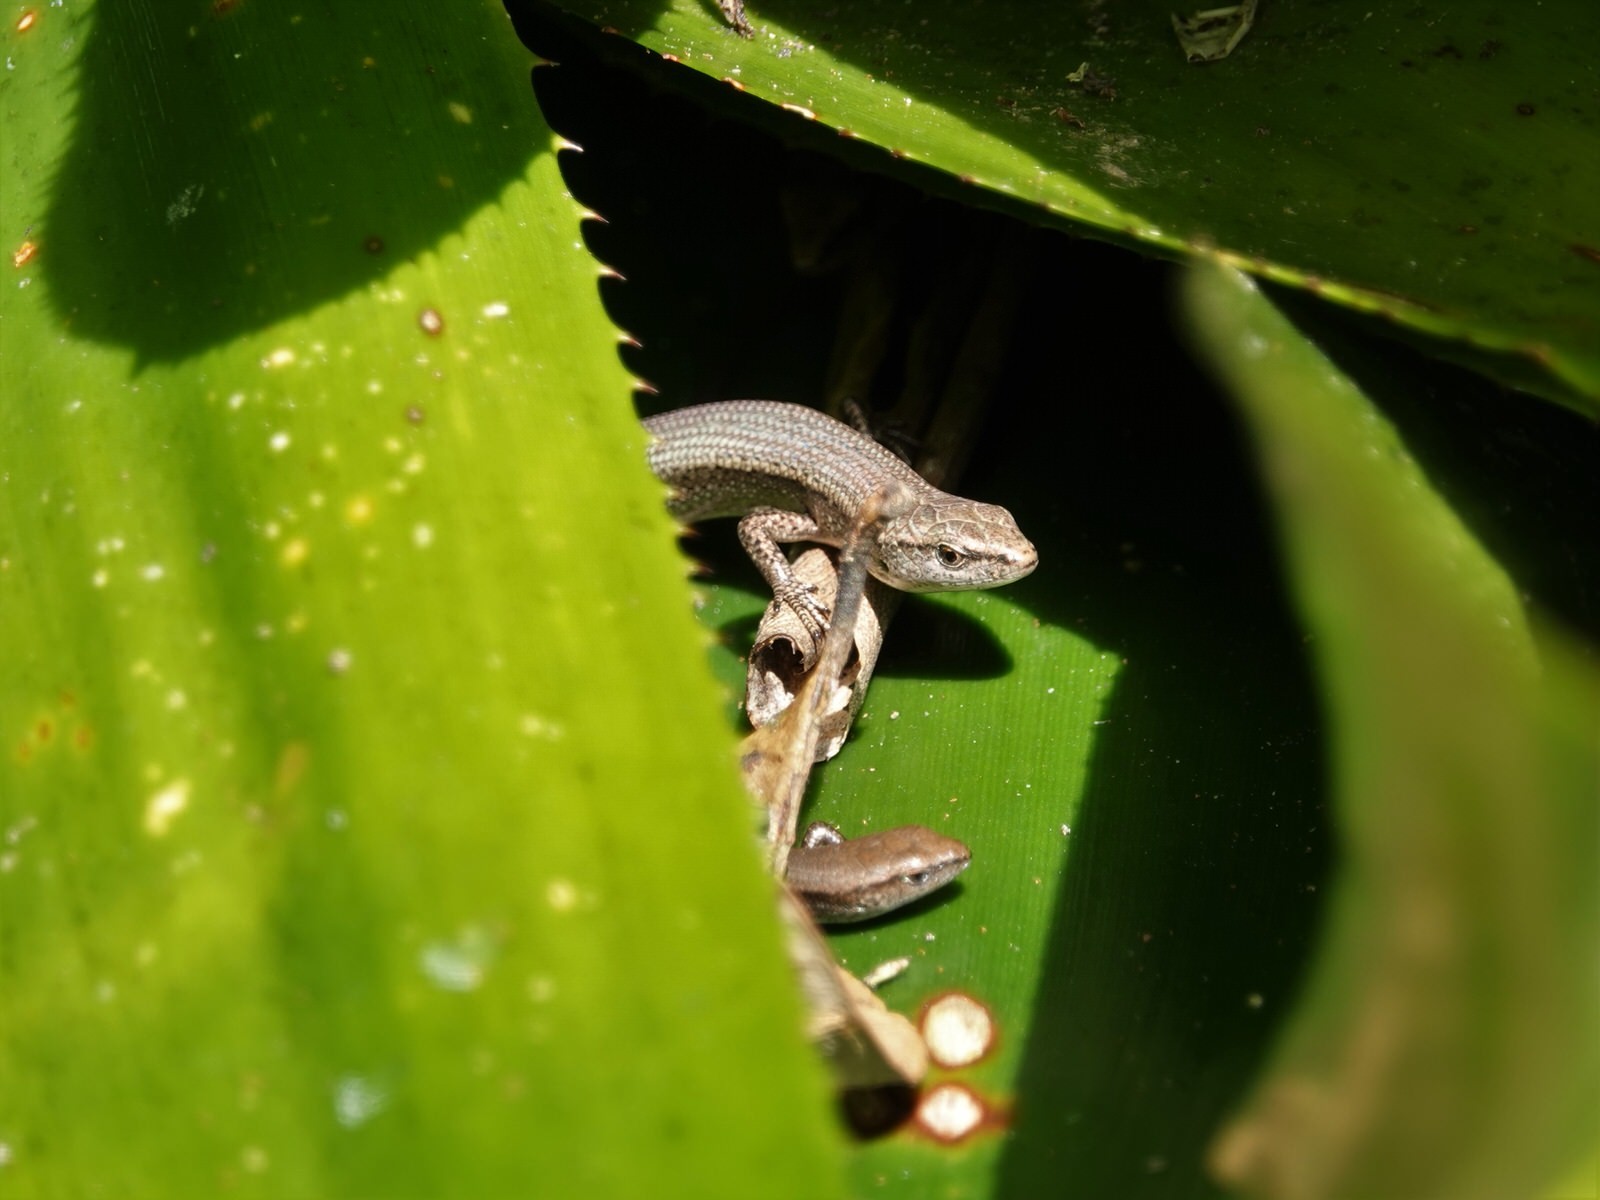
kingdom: Animalia
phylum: Chordata
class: Squamata
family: Scincidae
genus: Lampropholis
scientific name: Lampropholis delicata
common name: Plague skink
